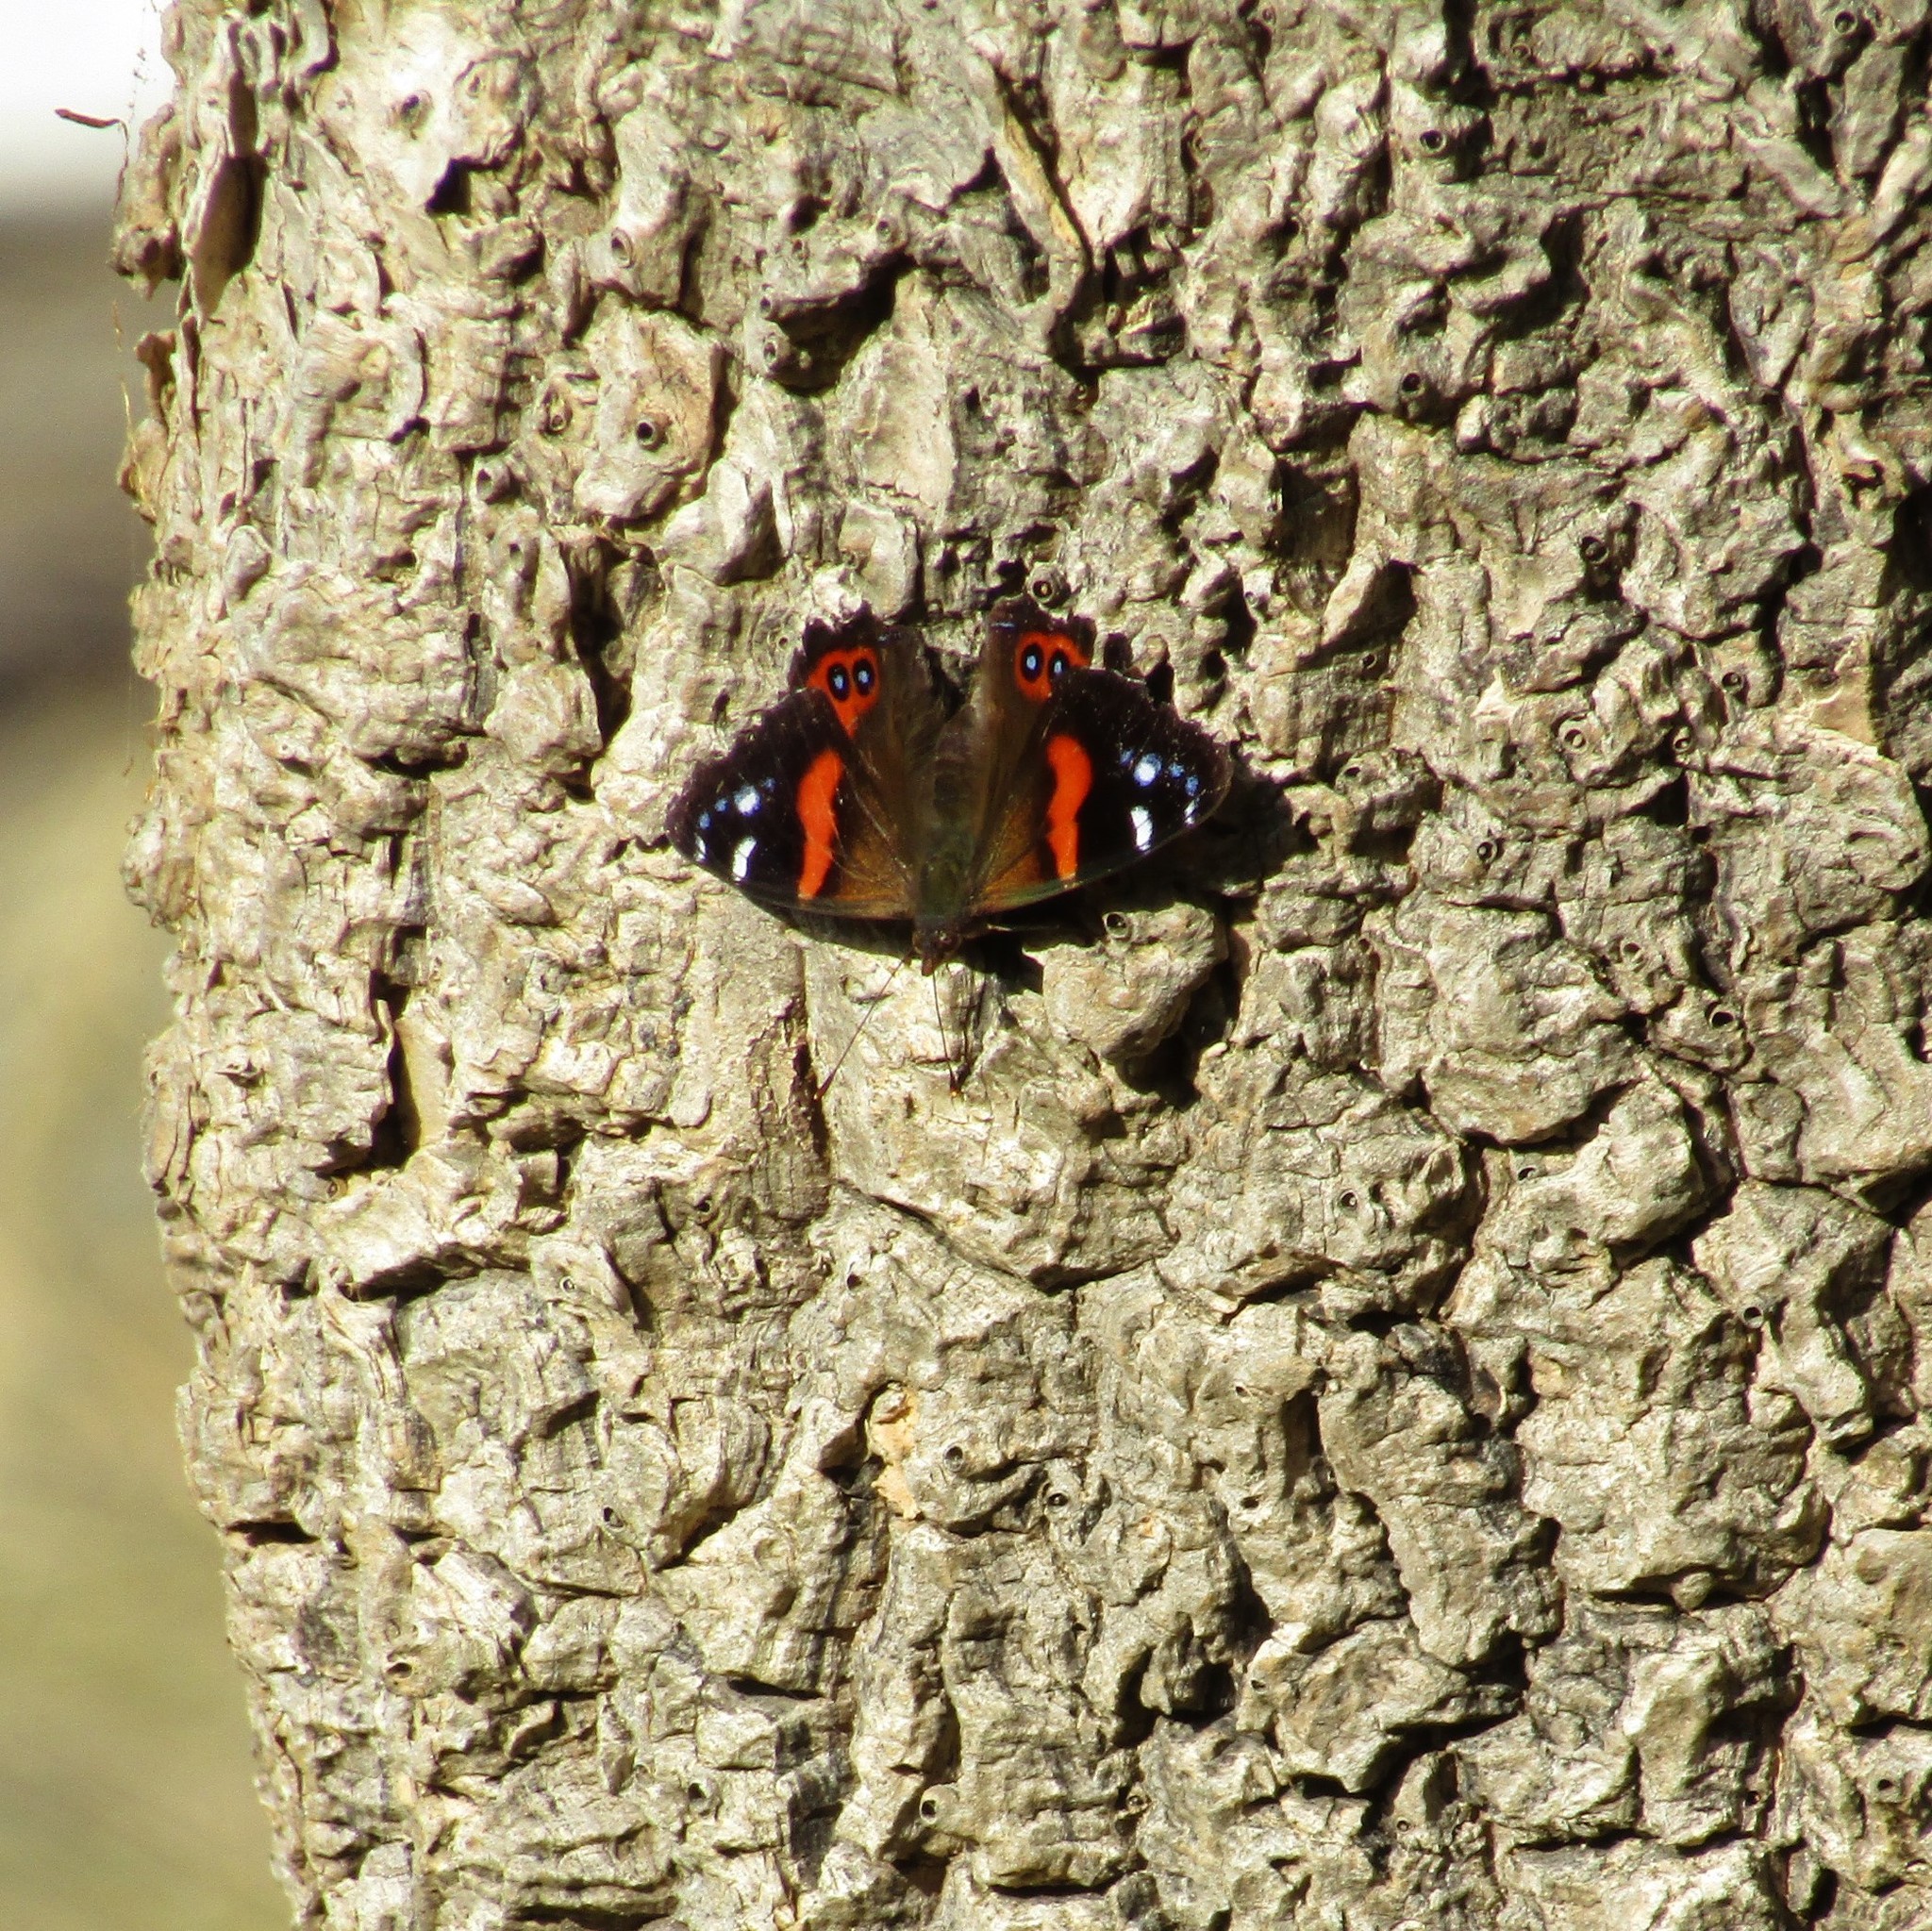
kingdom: Animalia
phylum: Arthropoda
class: Insecta
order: Lepidoptera
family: Nymphalidae
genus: Vanessa
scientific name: Vanessa gonerilla
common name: New zealand red admiral
